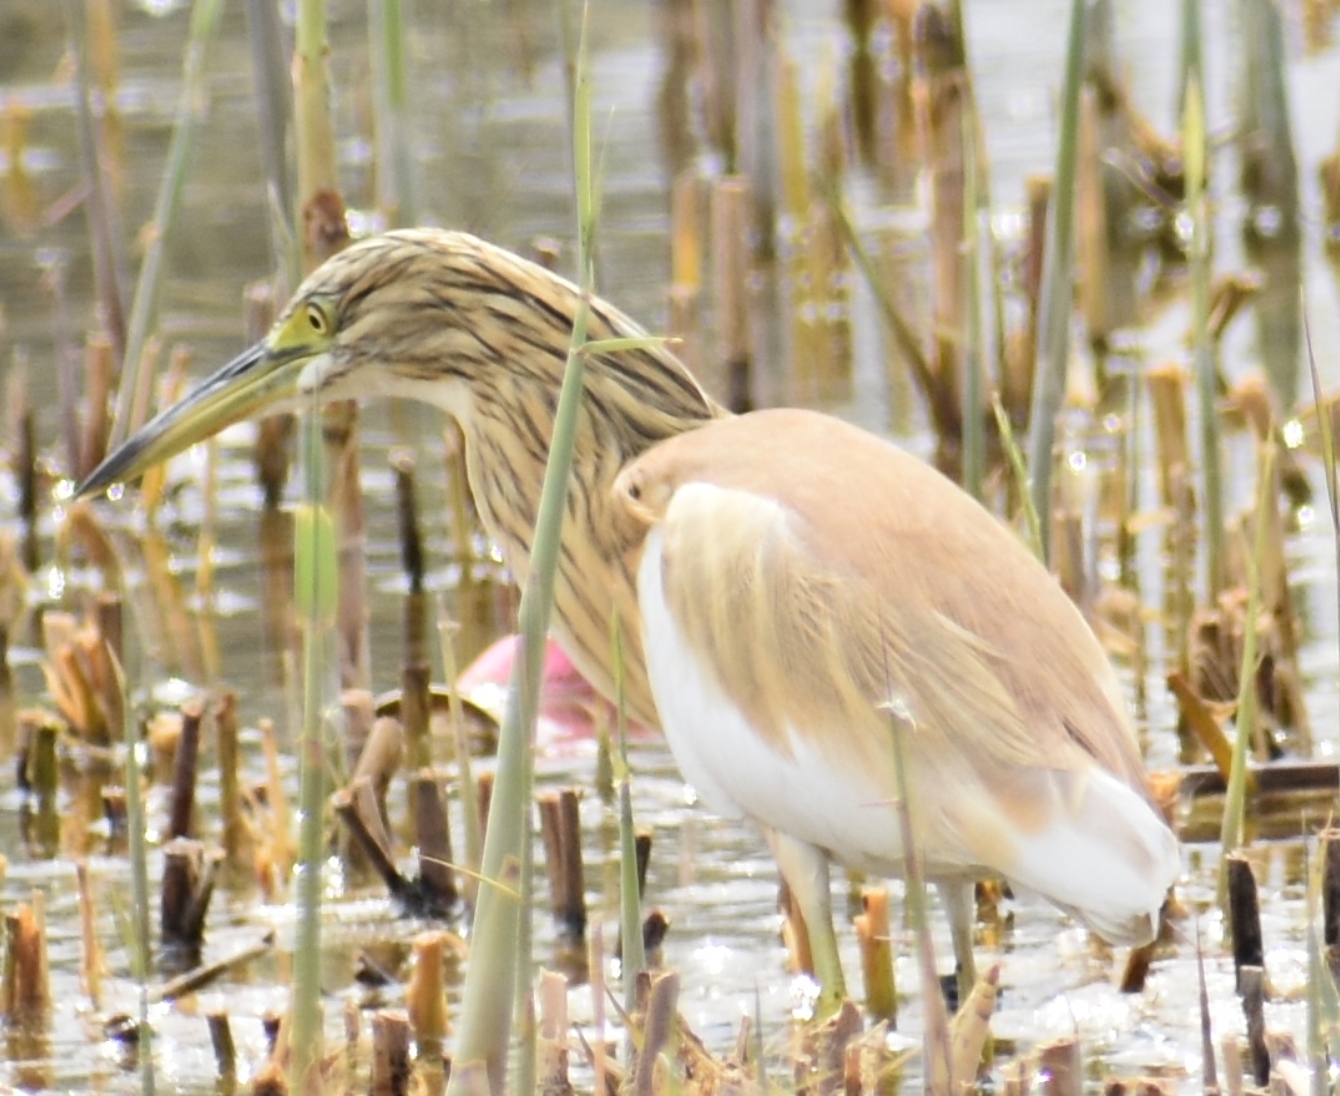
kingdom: Animalia
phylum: Chordata
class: Aves
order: Pelecaniformes
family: Ardeidae
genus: Ardeola
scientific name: Ardeola ralloides
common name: Squacco heron
